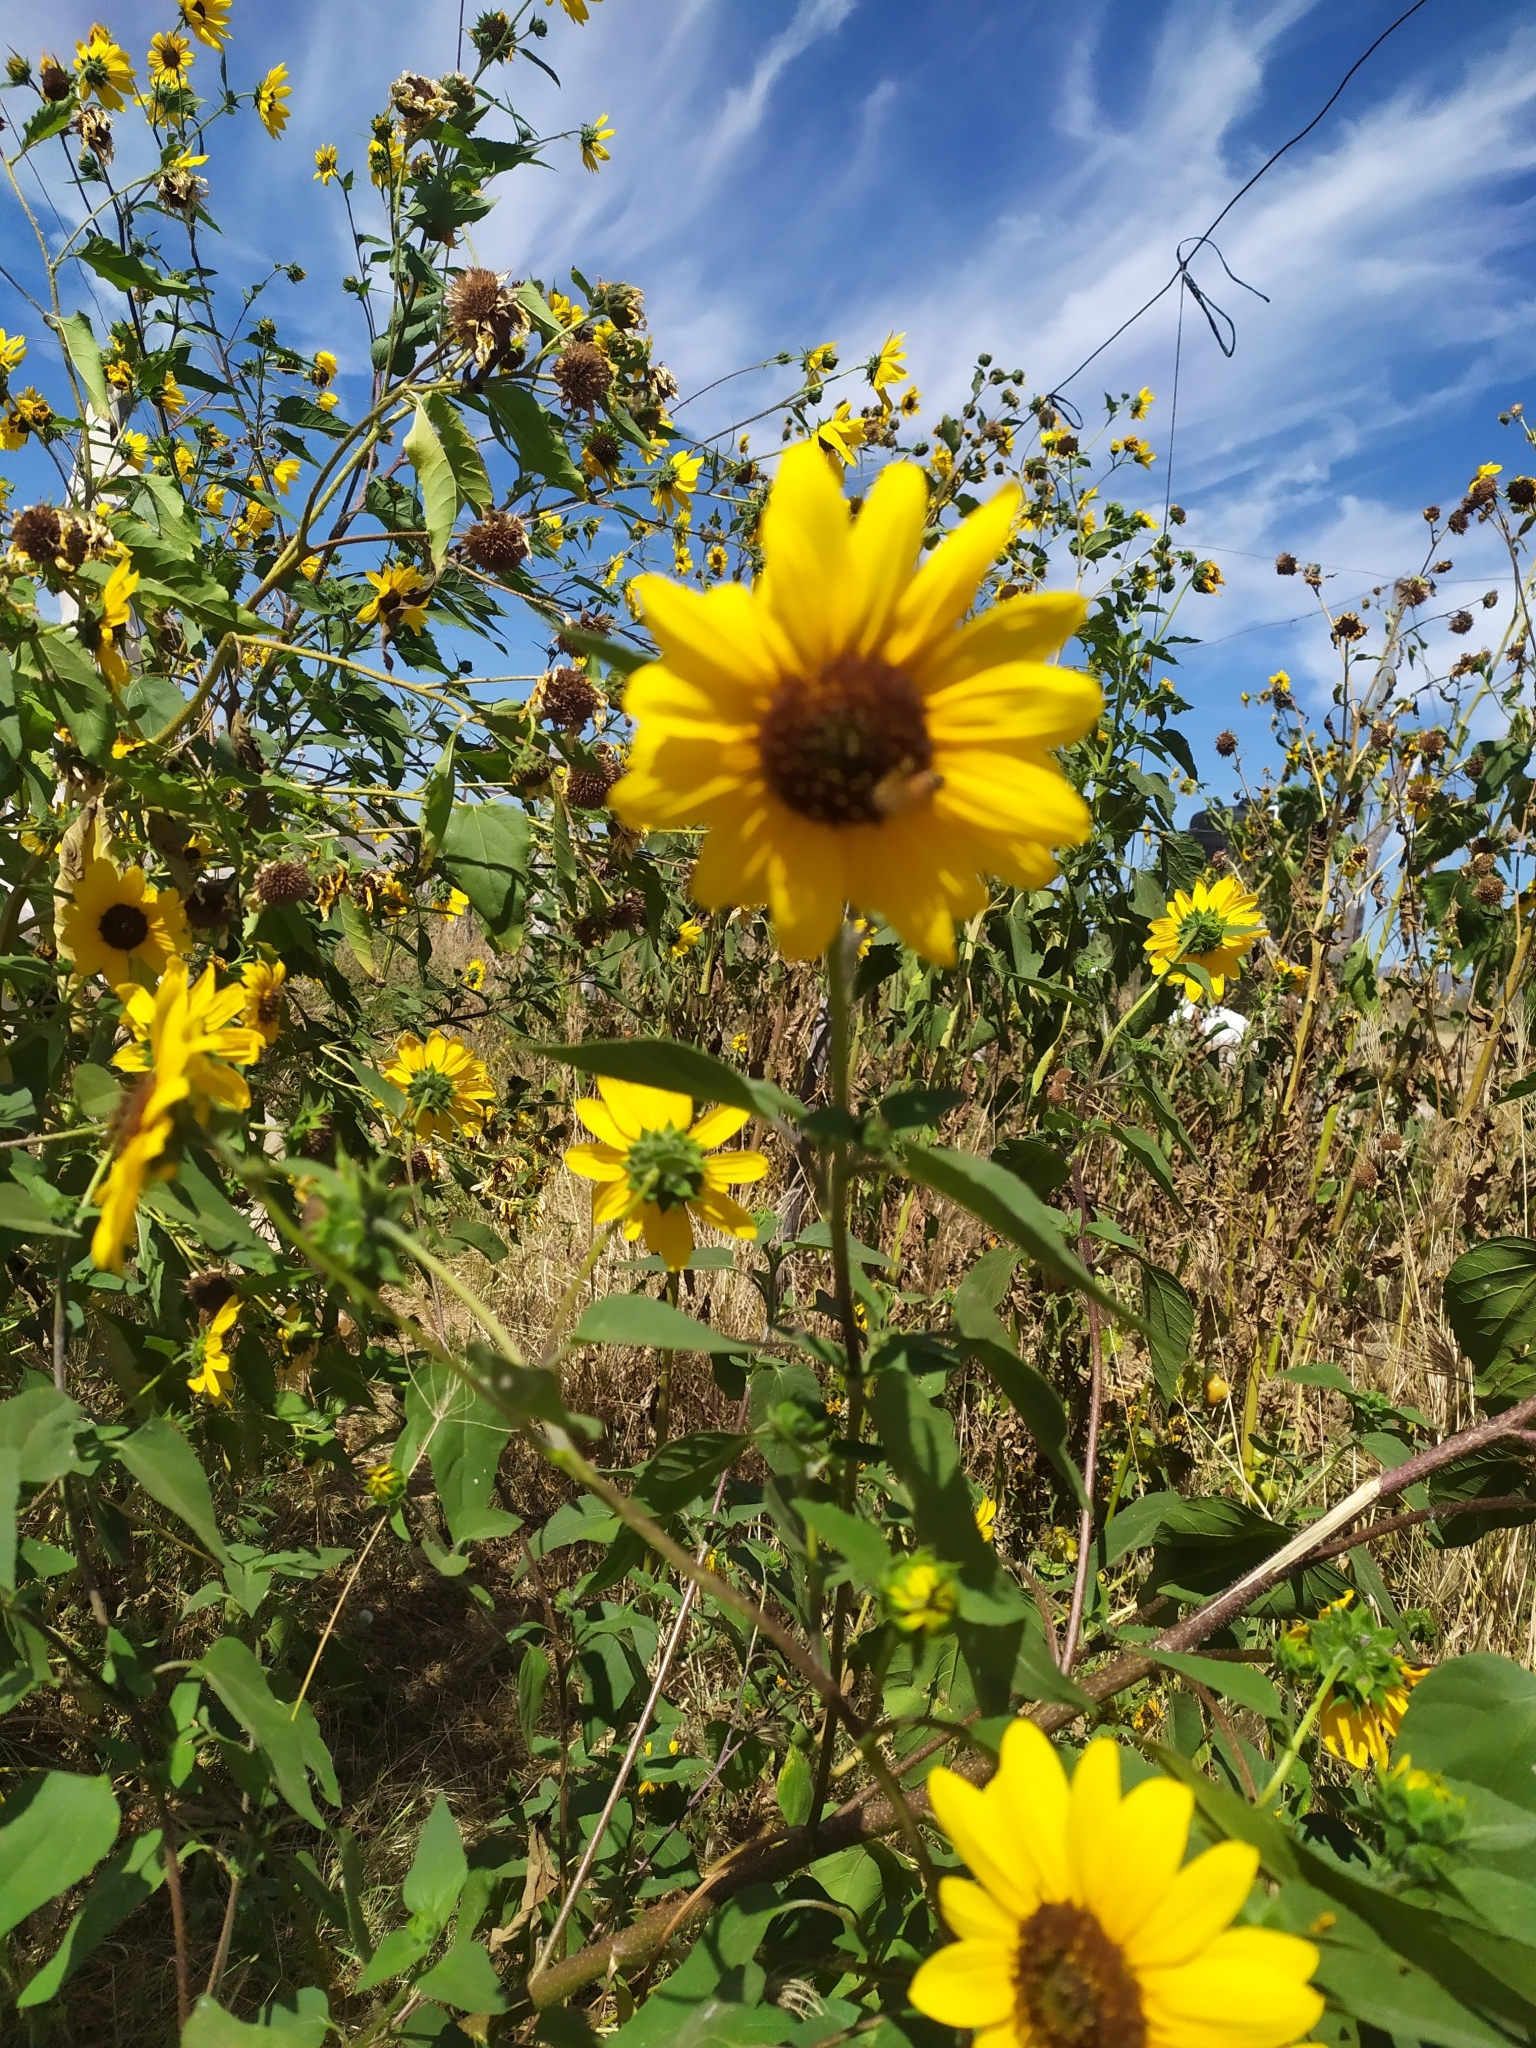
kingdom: Plantae
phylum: Tracheophyta
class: Magnoliopsida
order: Asterales
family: Asteraceae
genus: Helianthus
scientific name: Helianthus annuus
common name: Sunflower
